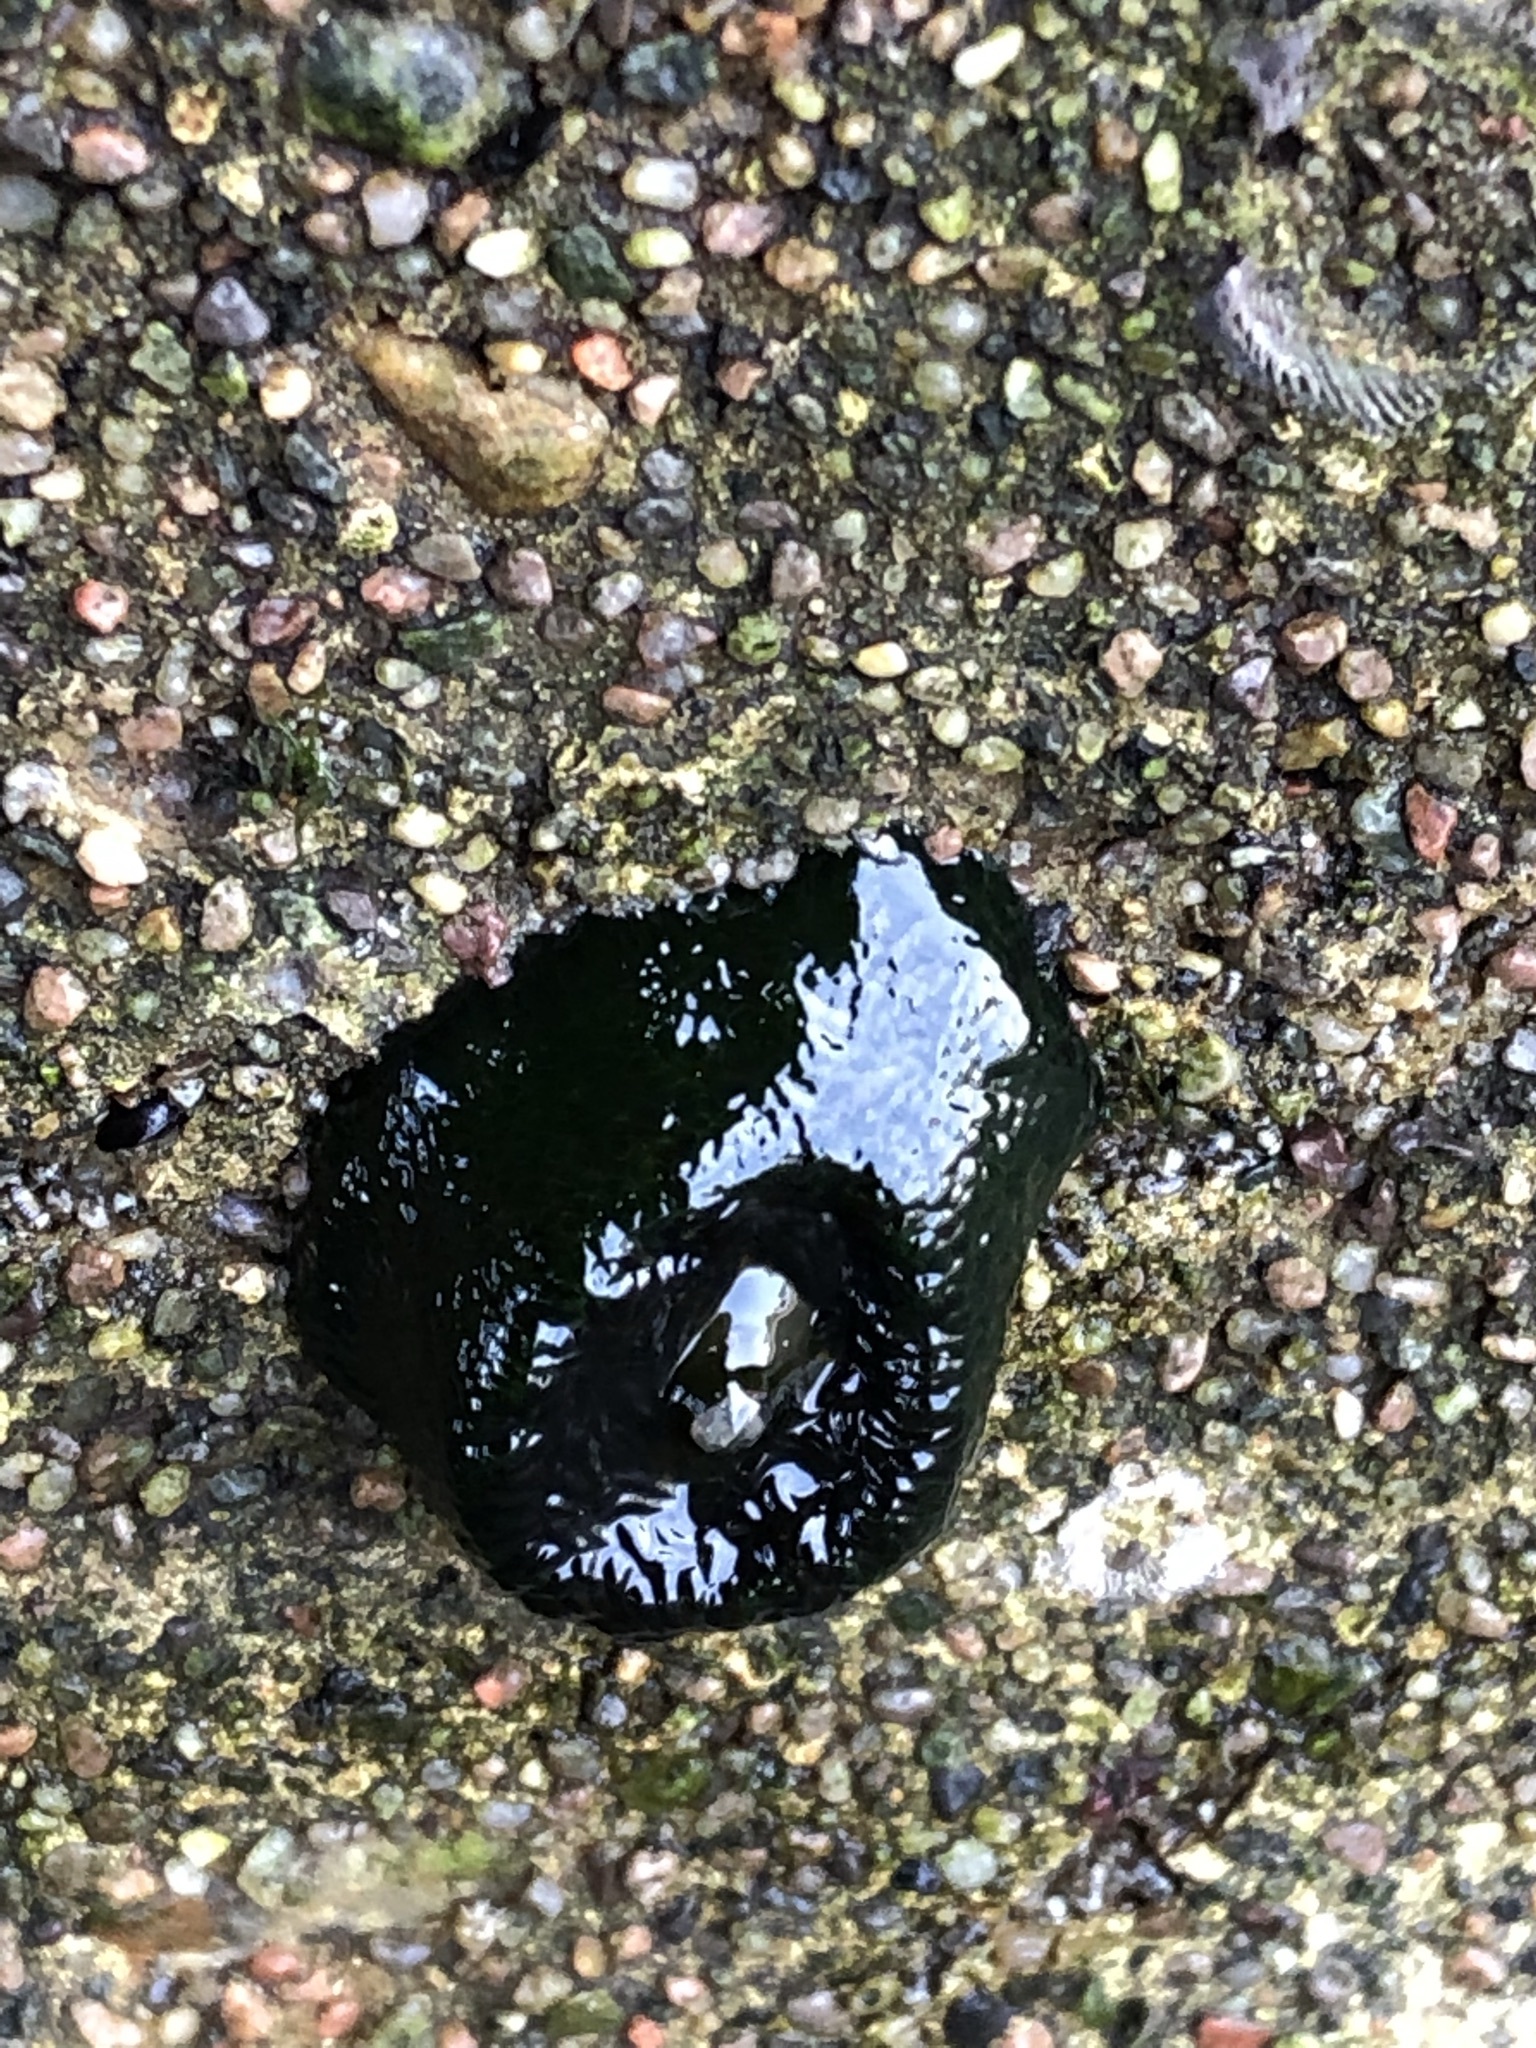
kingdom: Animalia
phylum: Cnidaria
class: Anthozoa
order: Actiniaria
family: Actiniidae
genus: Phymactis
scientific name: Phymactis papillosa
